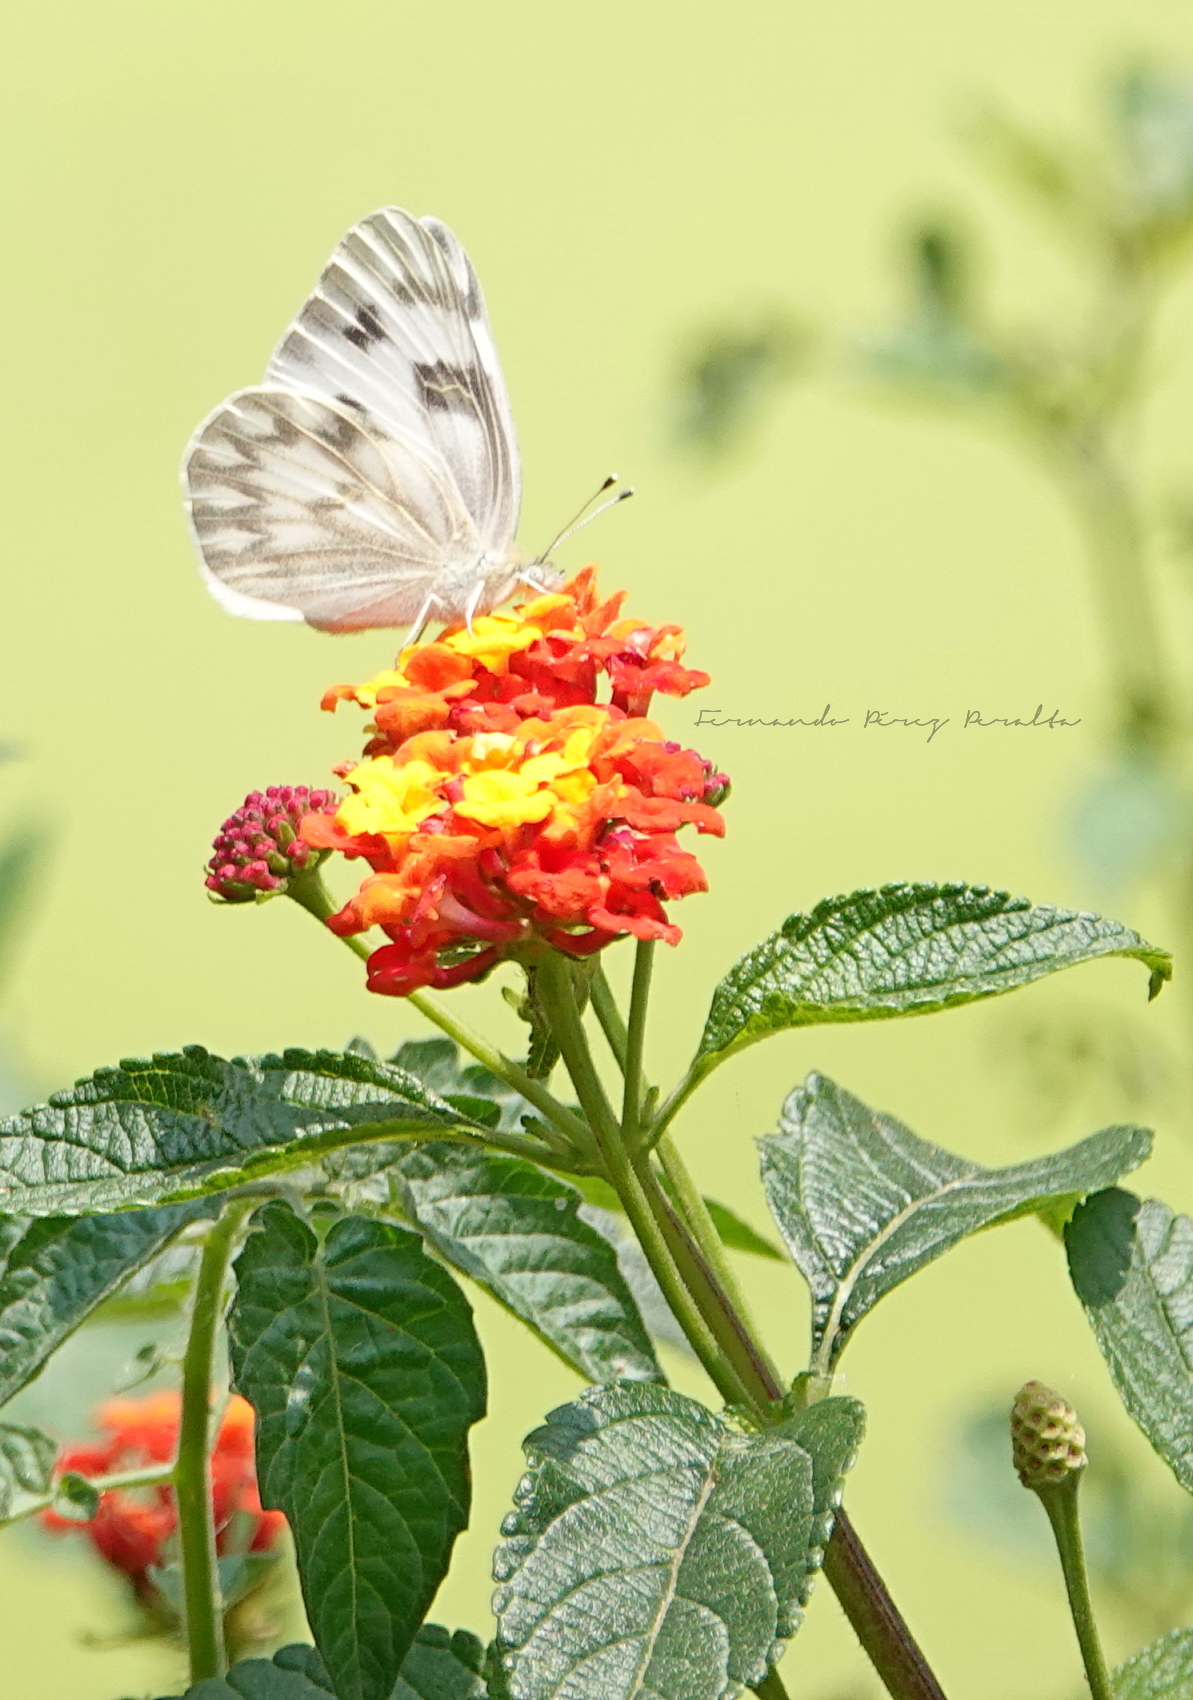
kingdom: Animalia
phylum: Arthropoda
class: Insecta
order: Lepidoptera
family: Pieridae
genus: Pontia
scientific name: Pontia protodice
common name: Checkered white
